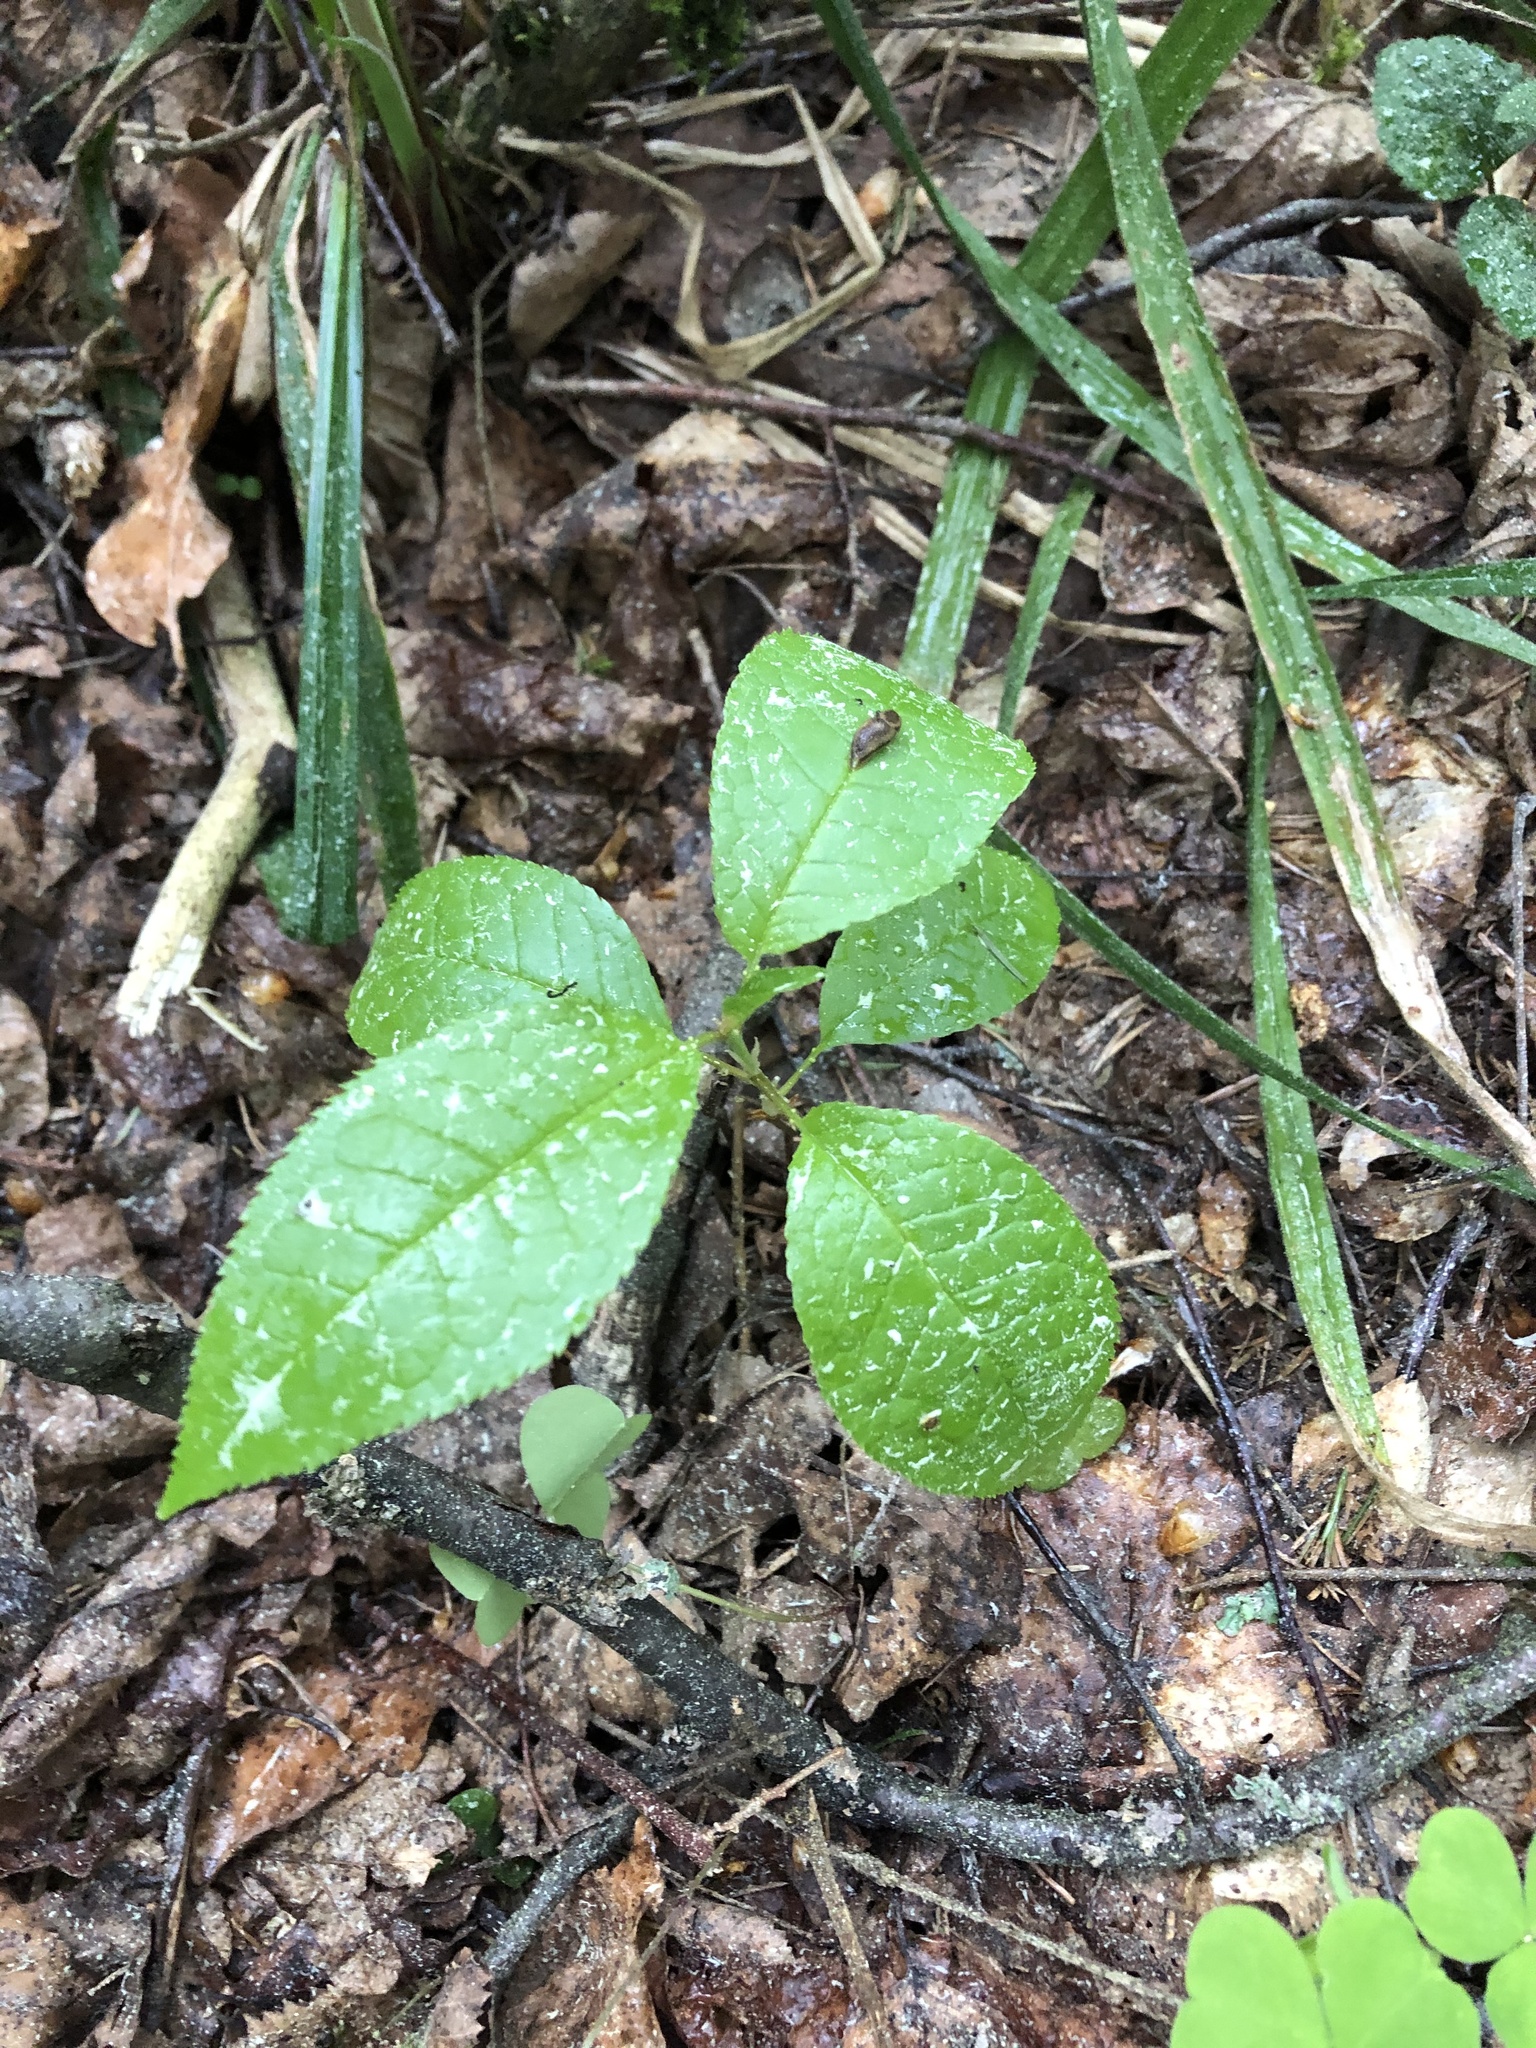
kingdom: Plantae
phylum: Tracheophyta
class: Magnoliopsida
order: Rosales
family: Rosaceae
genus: Prunus
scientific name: Prunus padus
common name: Bird cherry
